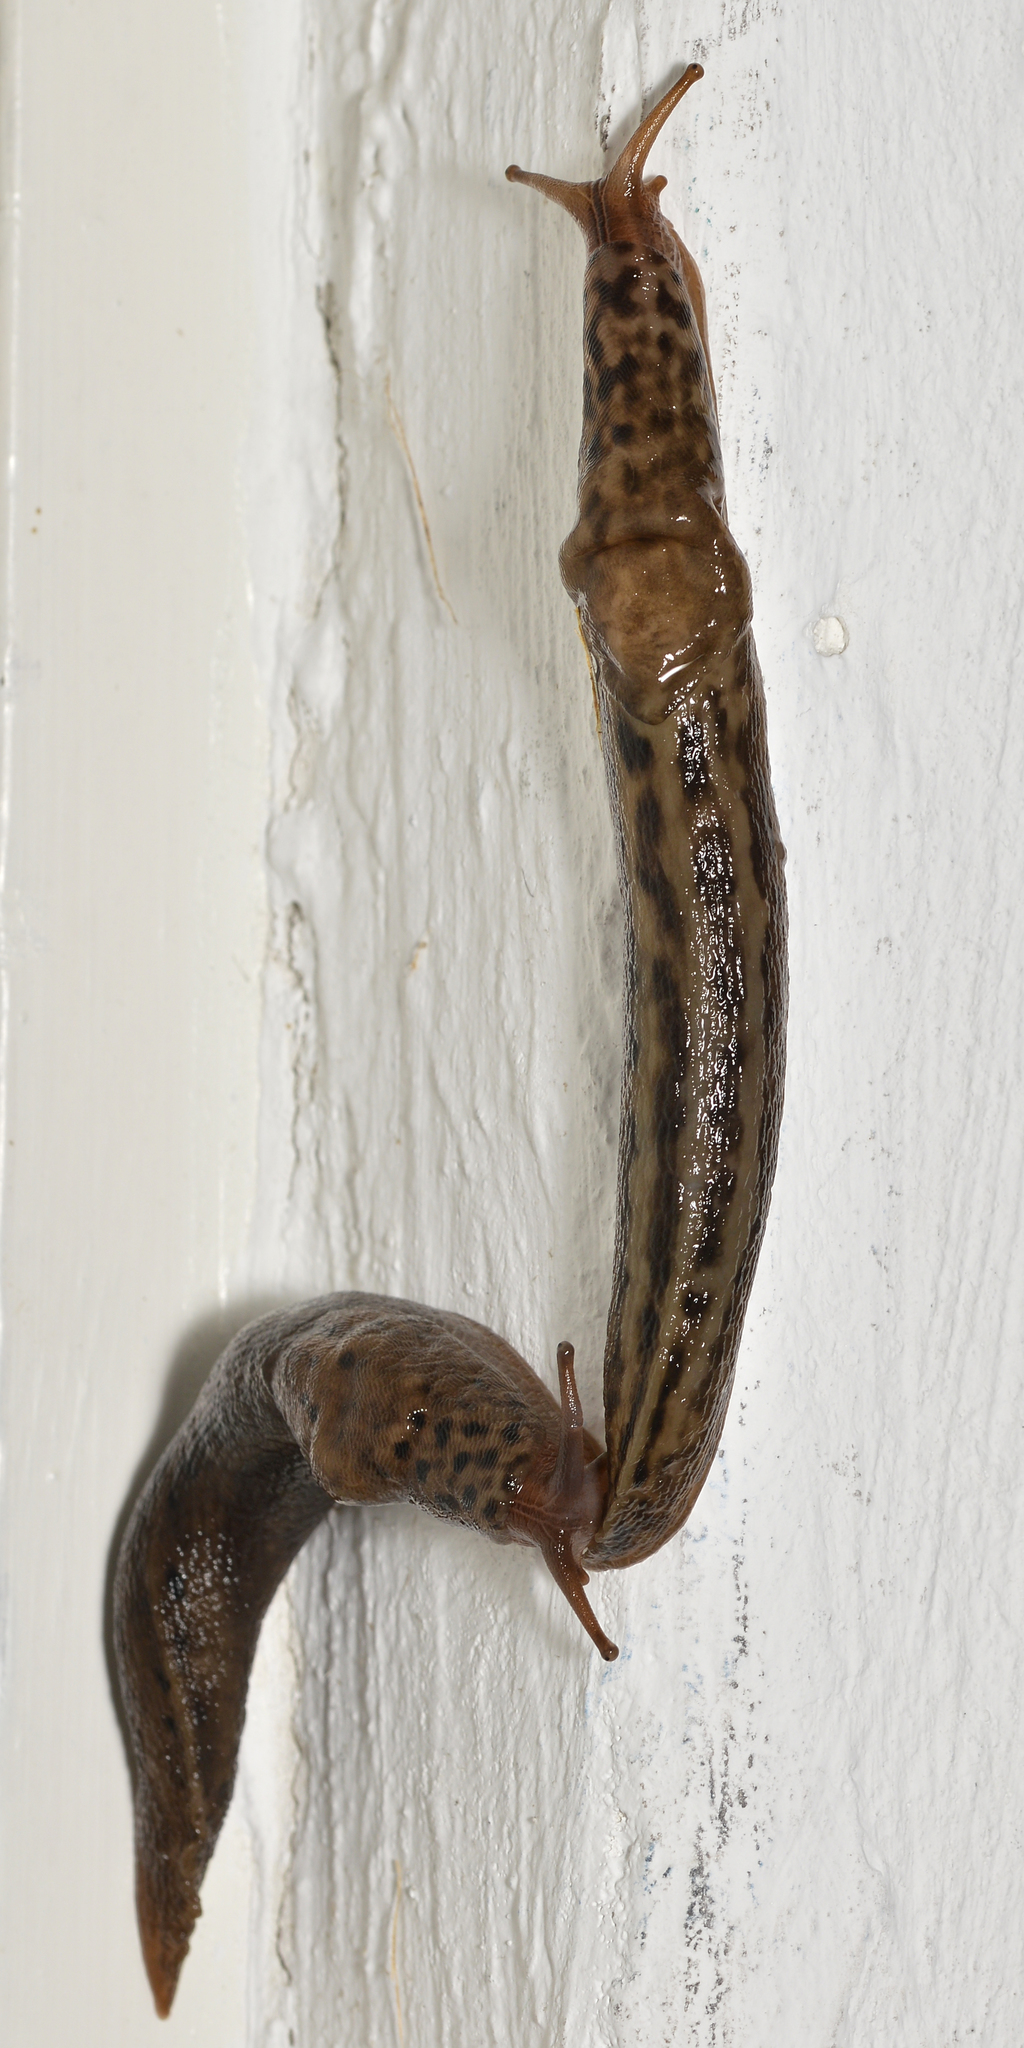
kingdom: Animalia
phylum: Mollusca
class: Gastropoda
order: Stylommatophora
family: Limacidae
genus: Limax
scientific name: Limax maximus
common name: Great grey slug
